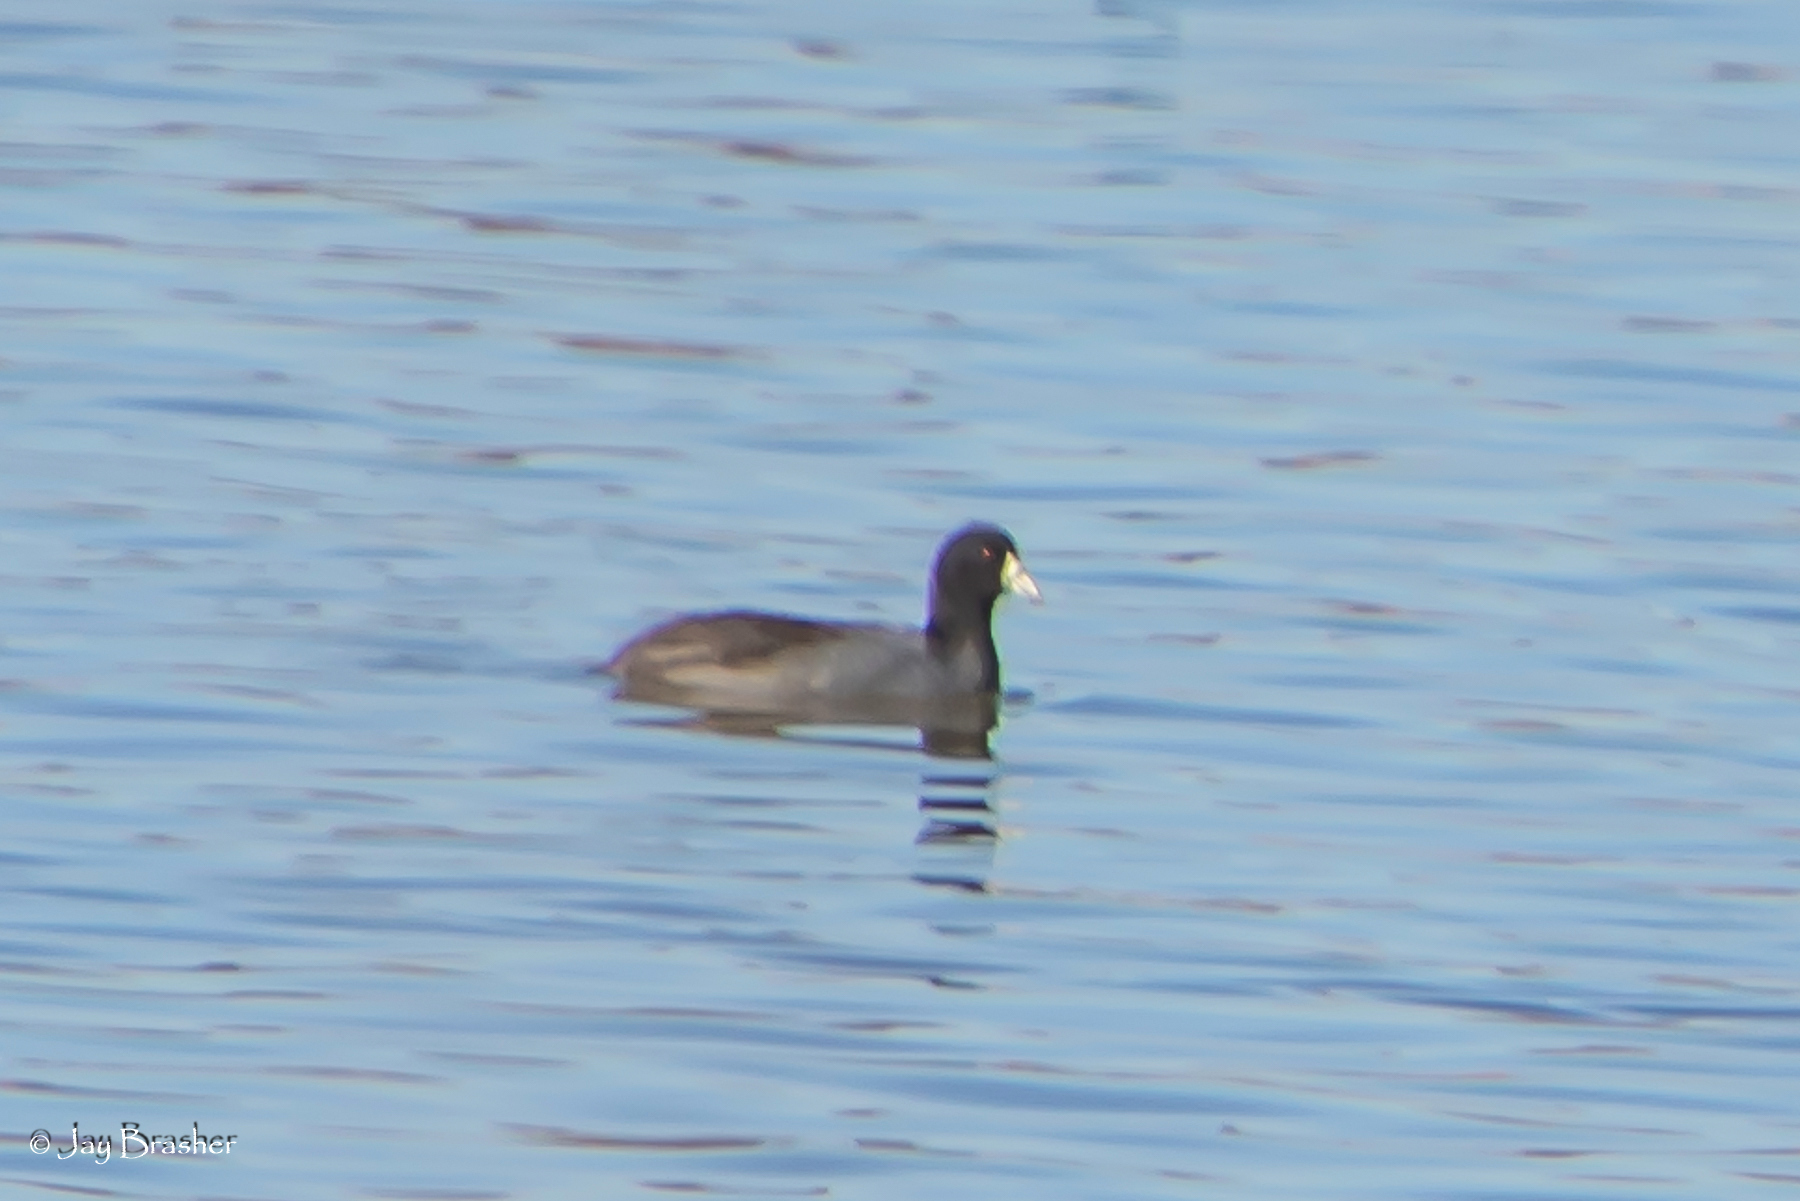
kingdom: Animalia
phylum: Chordata
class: Aves
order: Gruiformes
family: Rallidae
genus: Fulica
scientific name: Fulica americana
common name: American coot
